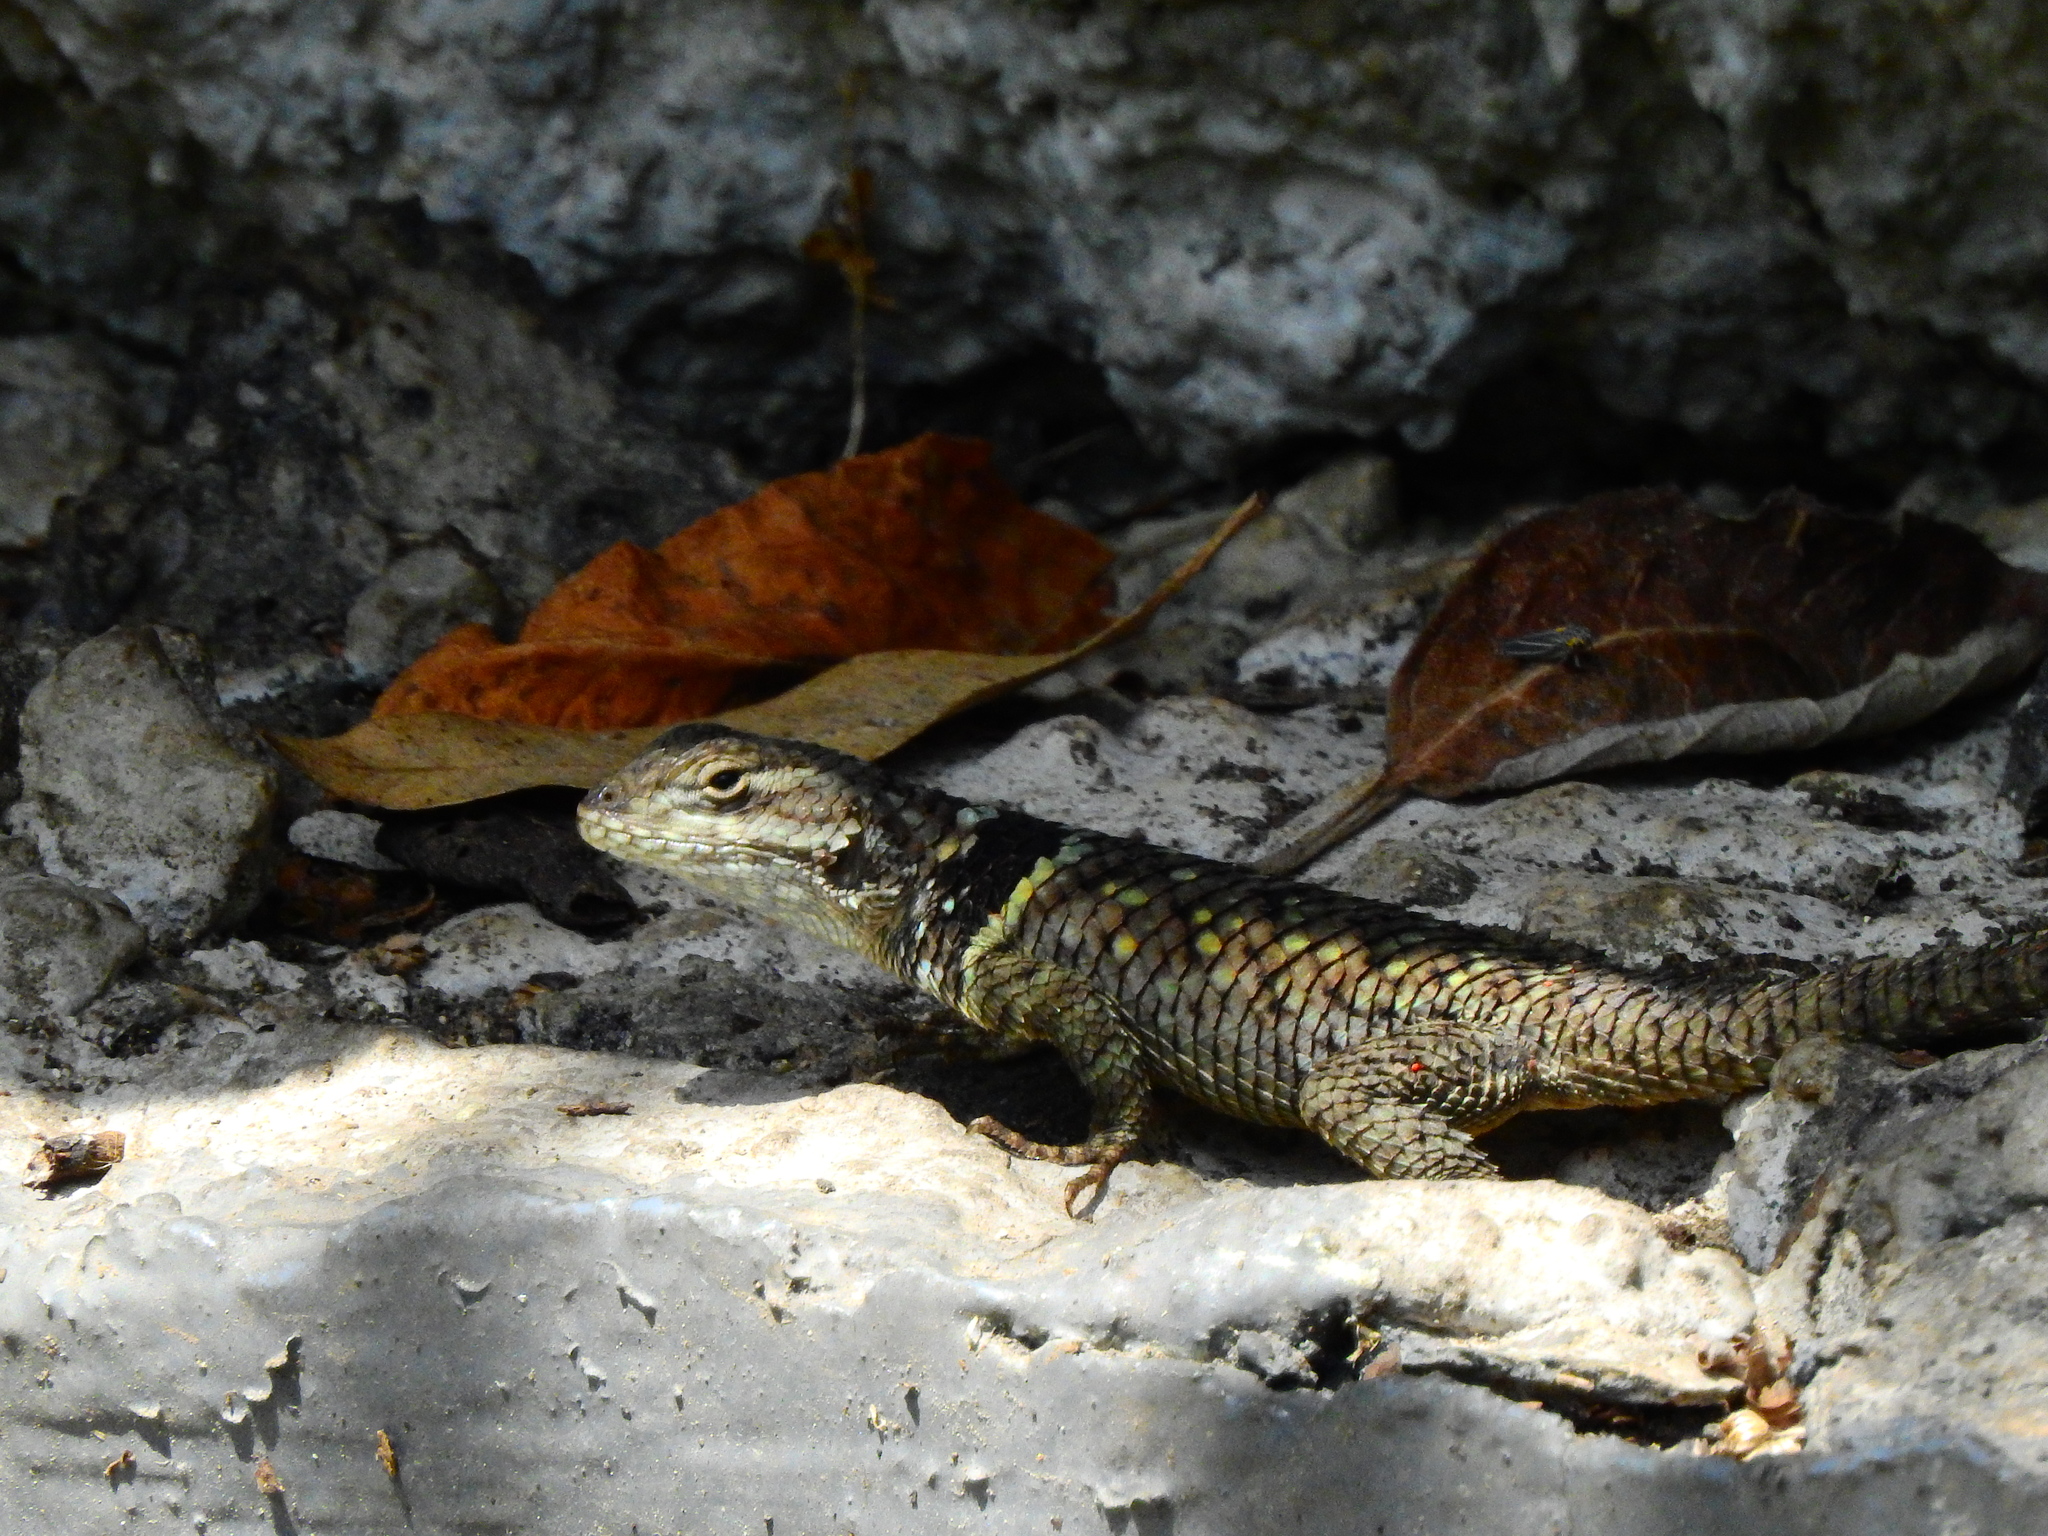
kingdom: Animalia
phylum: Chordata
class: Squamata
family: Phrynosomatidae
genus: Sceloporus
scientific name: Sceloporus torquatus
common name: Central plateau torquate lizard [melanogaster]
